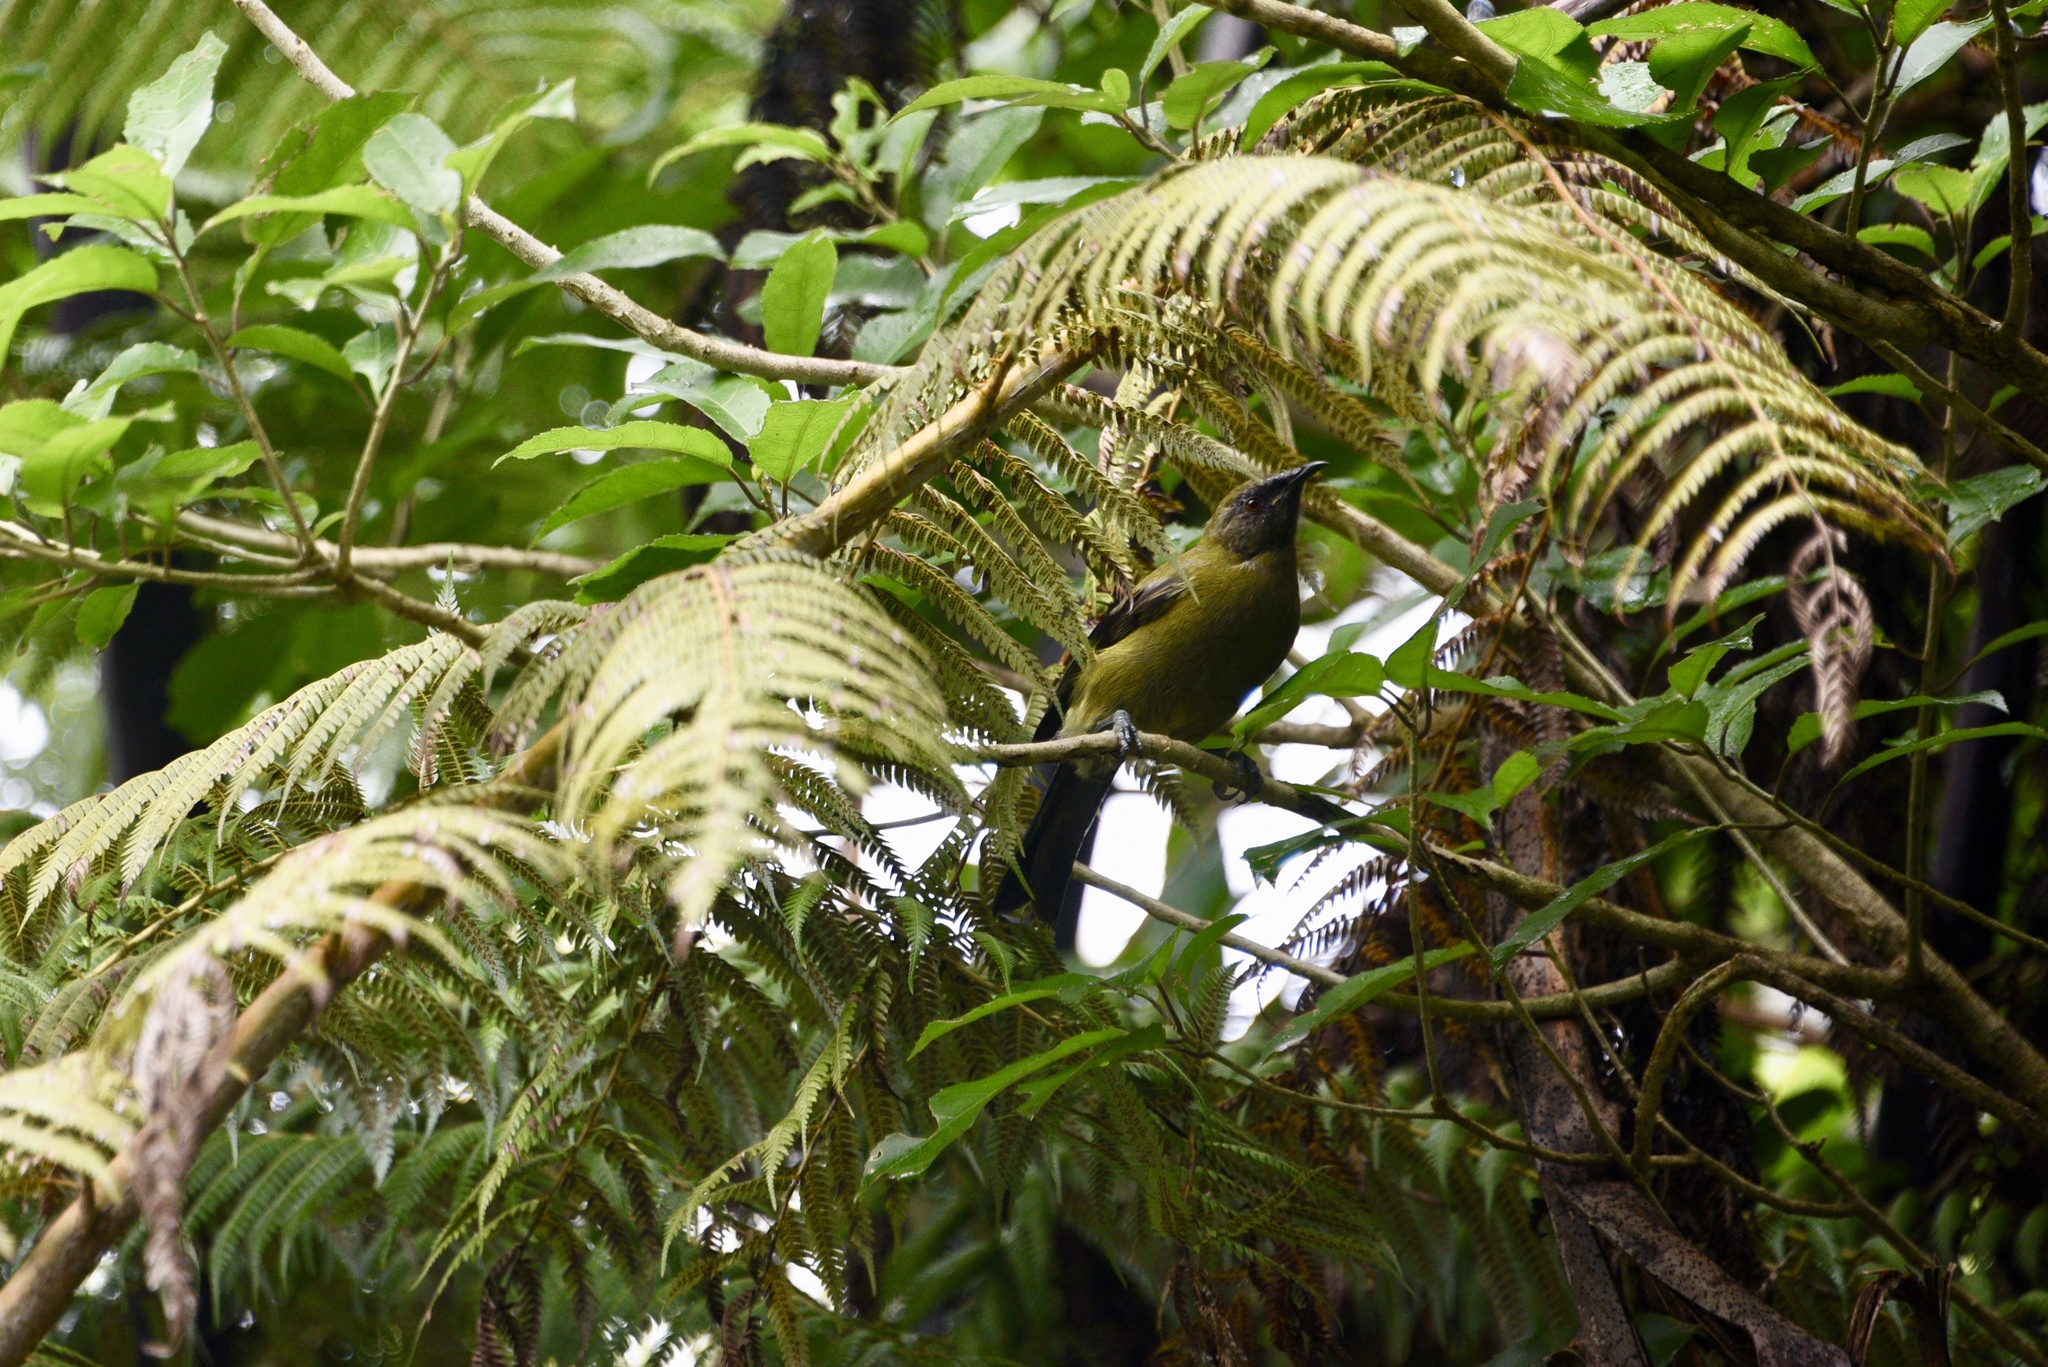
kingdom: Animalia
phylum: Chordata
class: Aves
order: Passeriformes
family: Meliphagidae
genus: Anthornis
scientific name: Anthornis melanura
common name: New zealand bellbird
